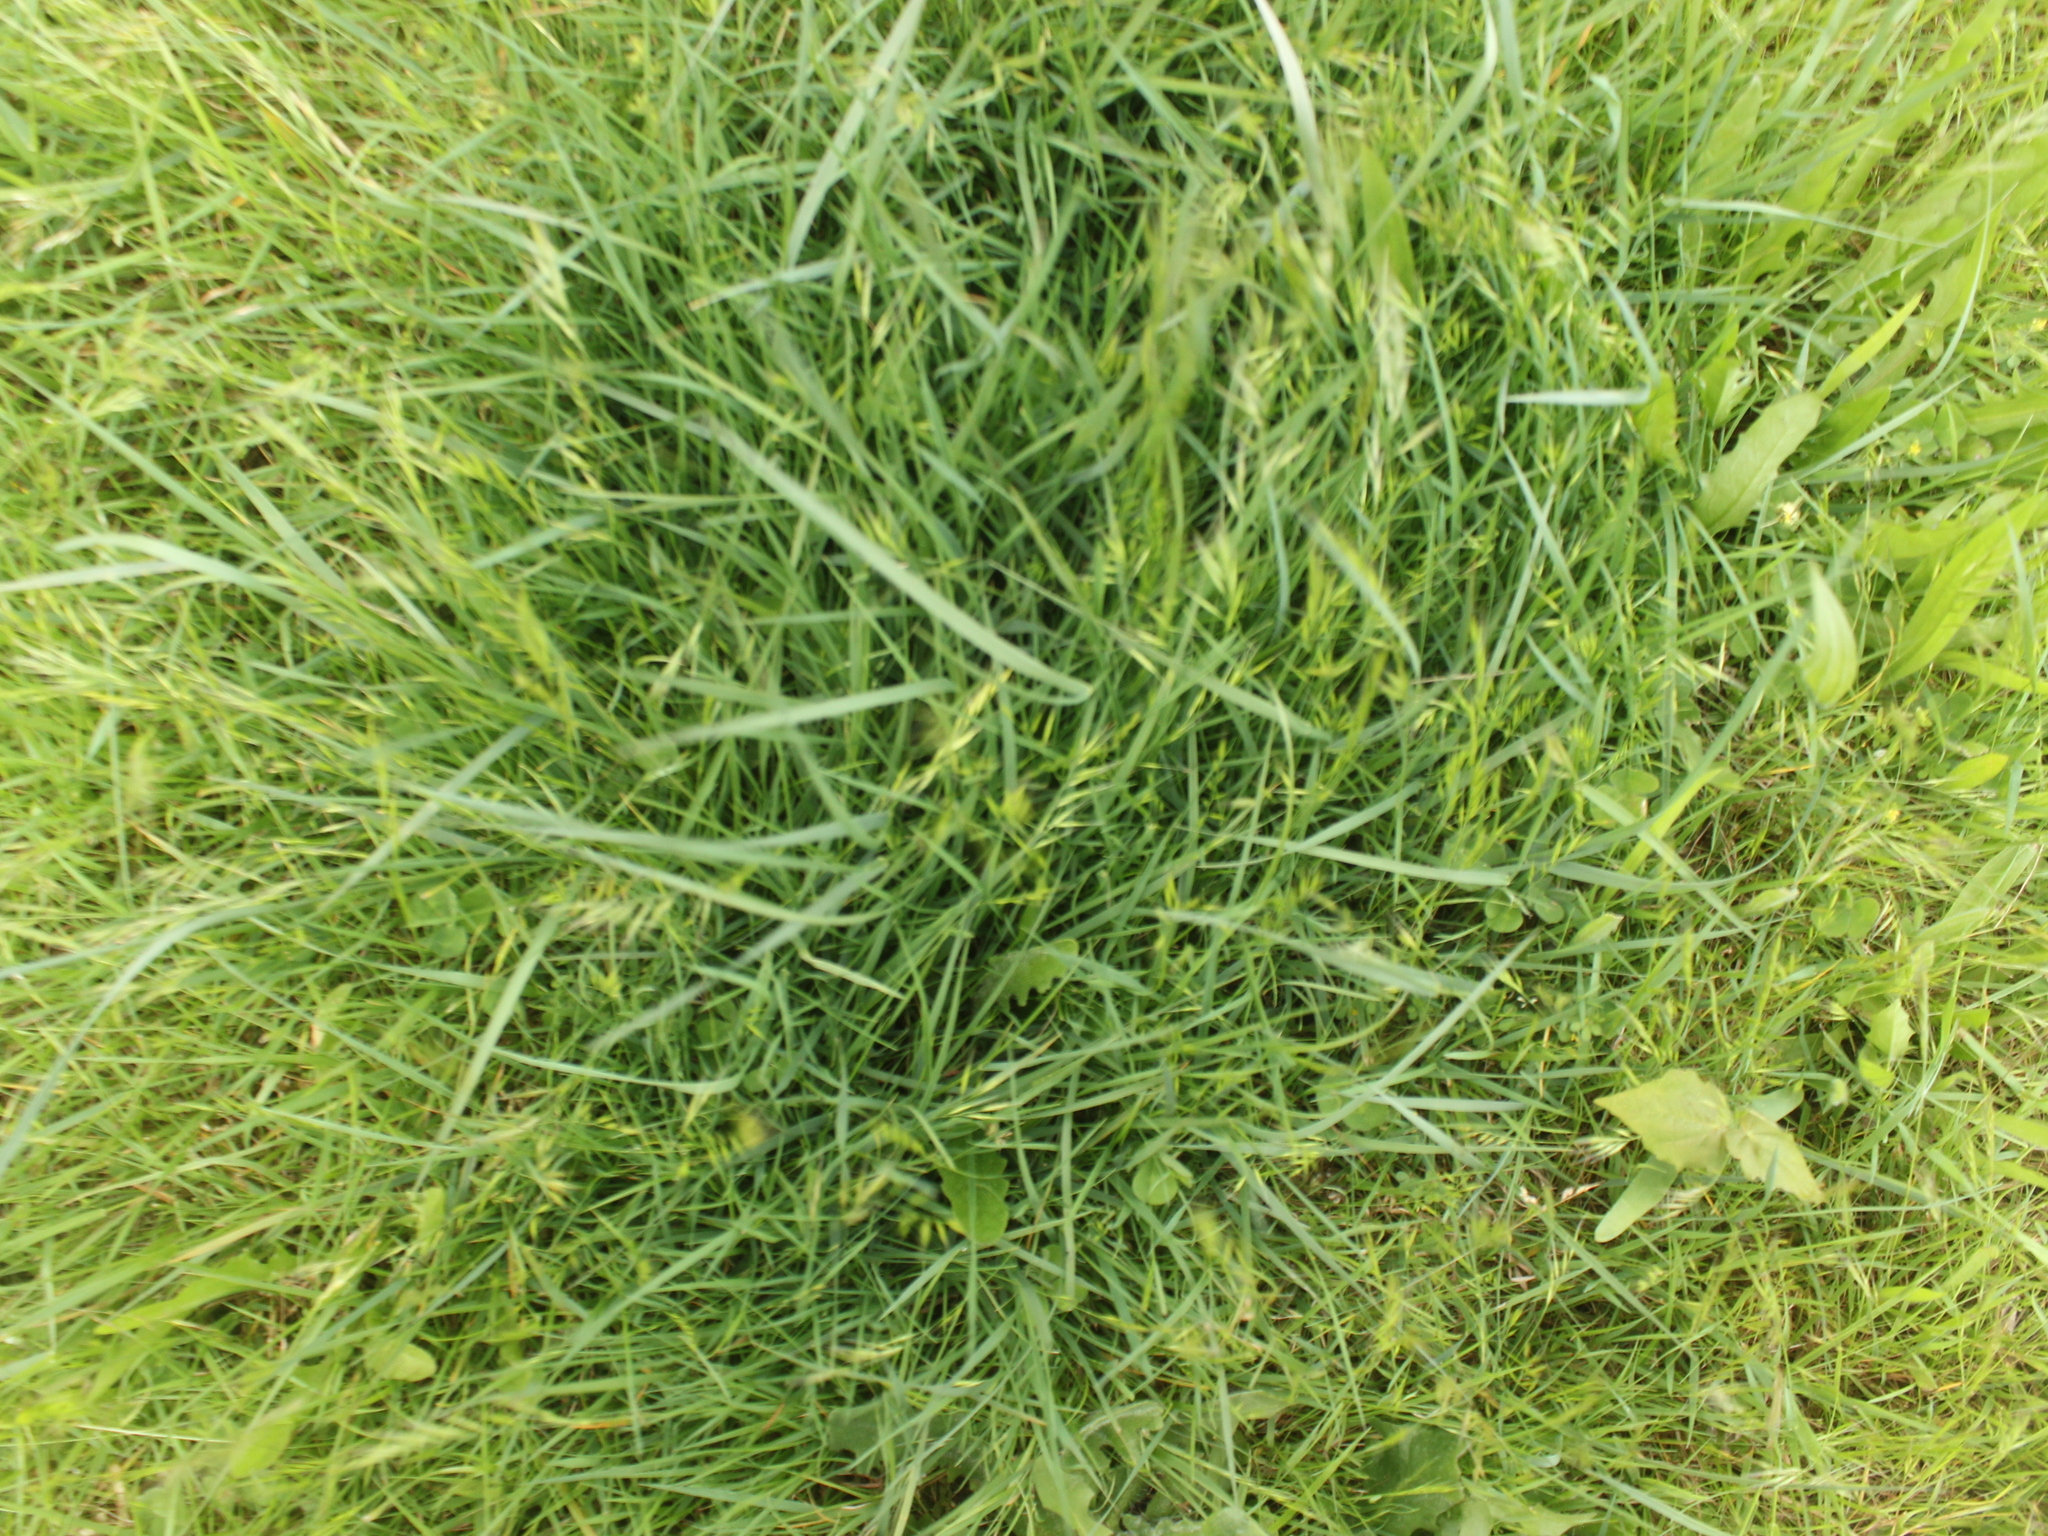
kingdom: Plantae
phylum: Tracheophyta
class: Liliopsida
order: Poales
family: Poaceae
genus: Lolium
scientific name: Lolium perenne
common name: Perennial ryegrass
